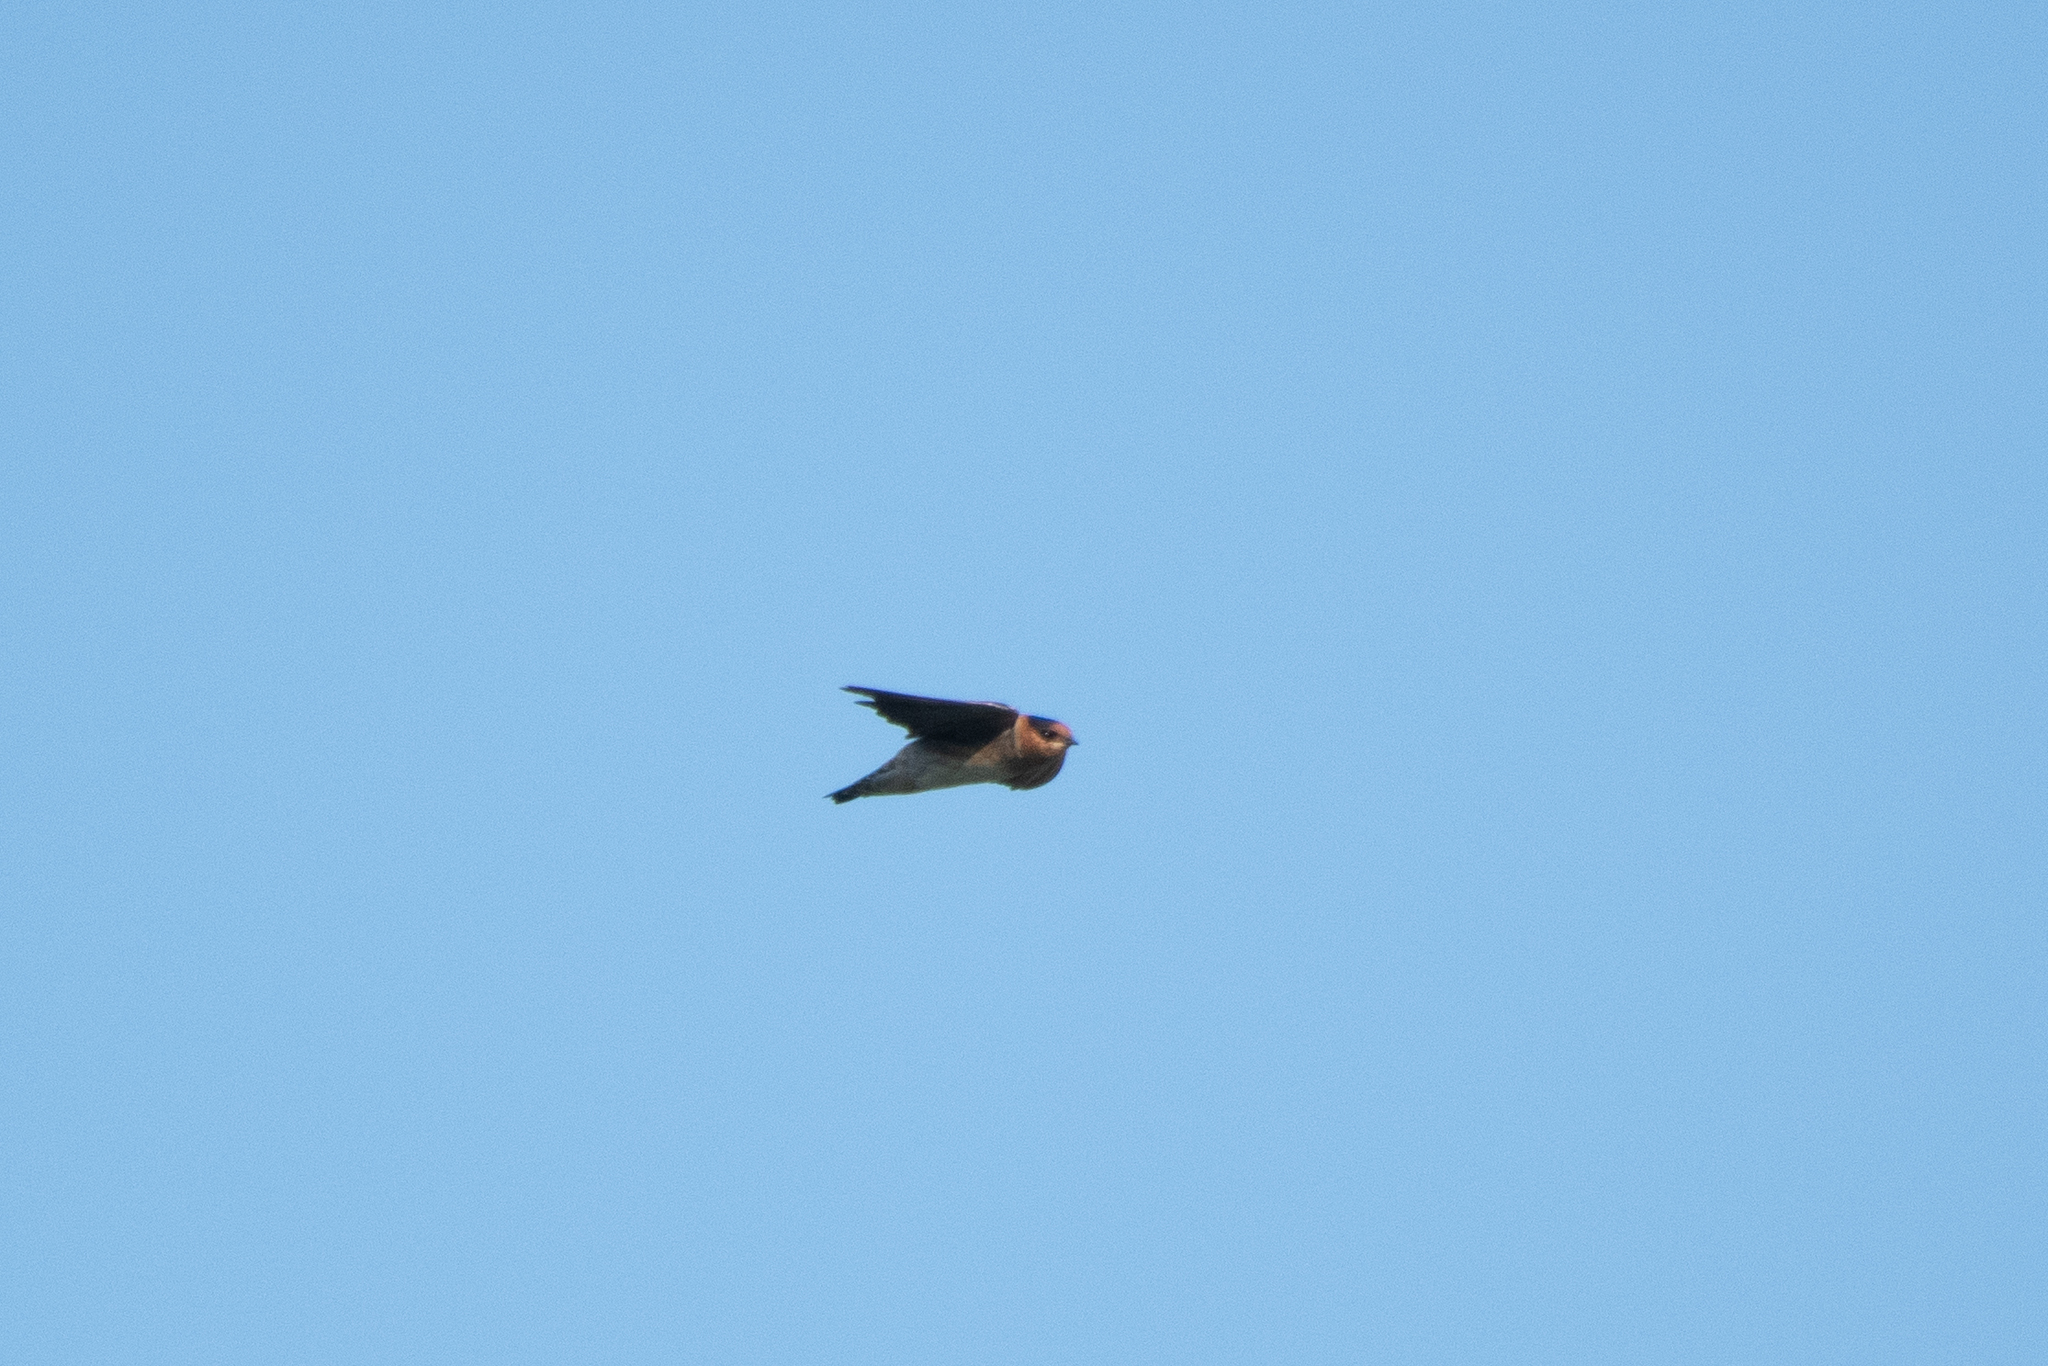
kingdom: Animalia
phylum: Chordata
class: Aves
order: Passeriformes
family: Hirundinidae
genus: Petrochelidon
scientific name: Petrochelidon fulva
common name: Cave swallow
